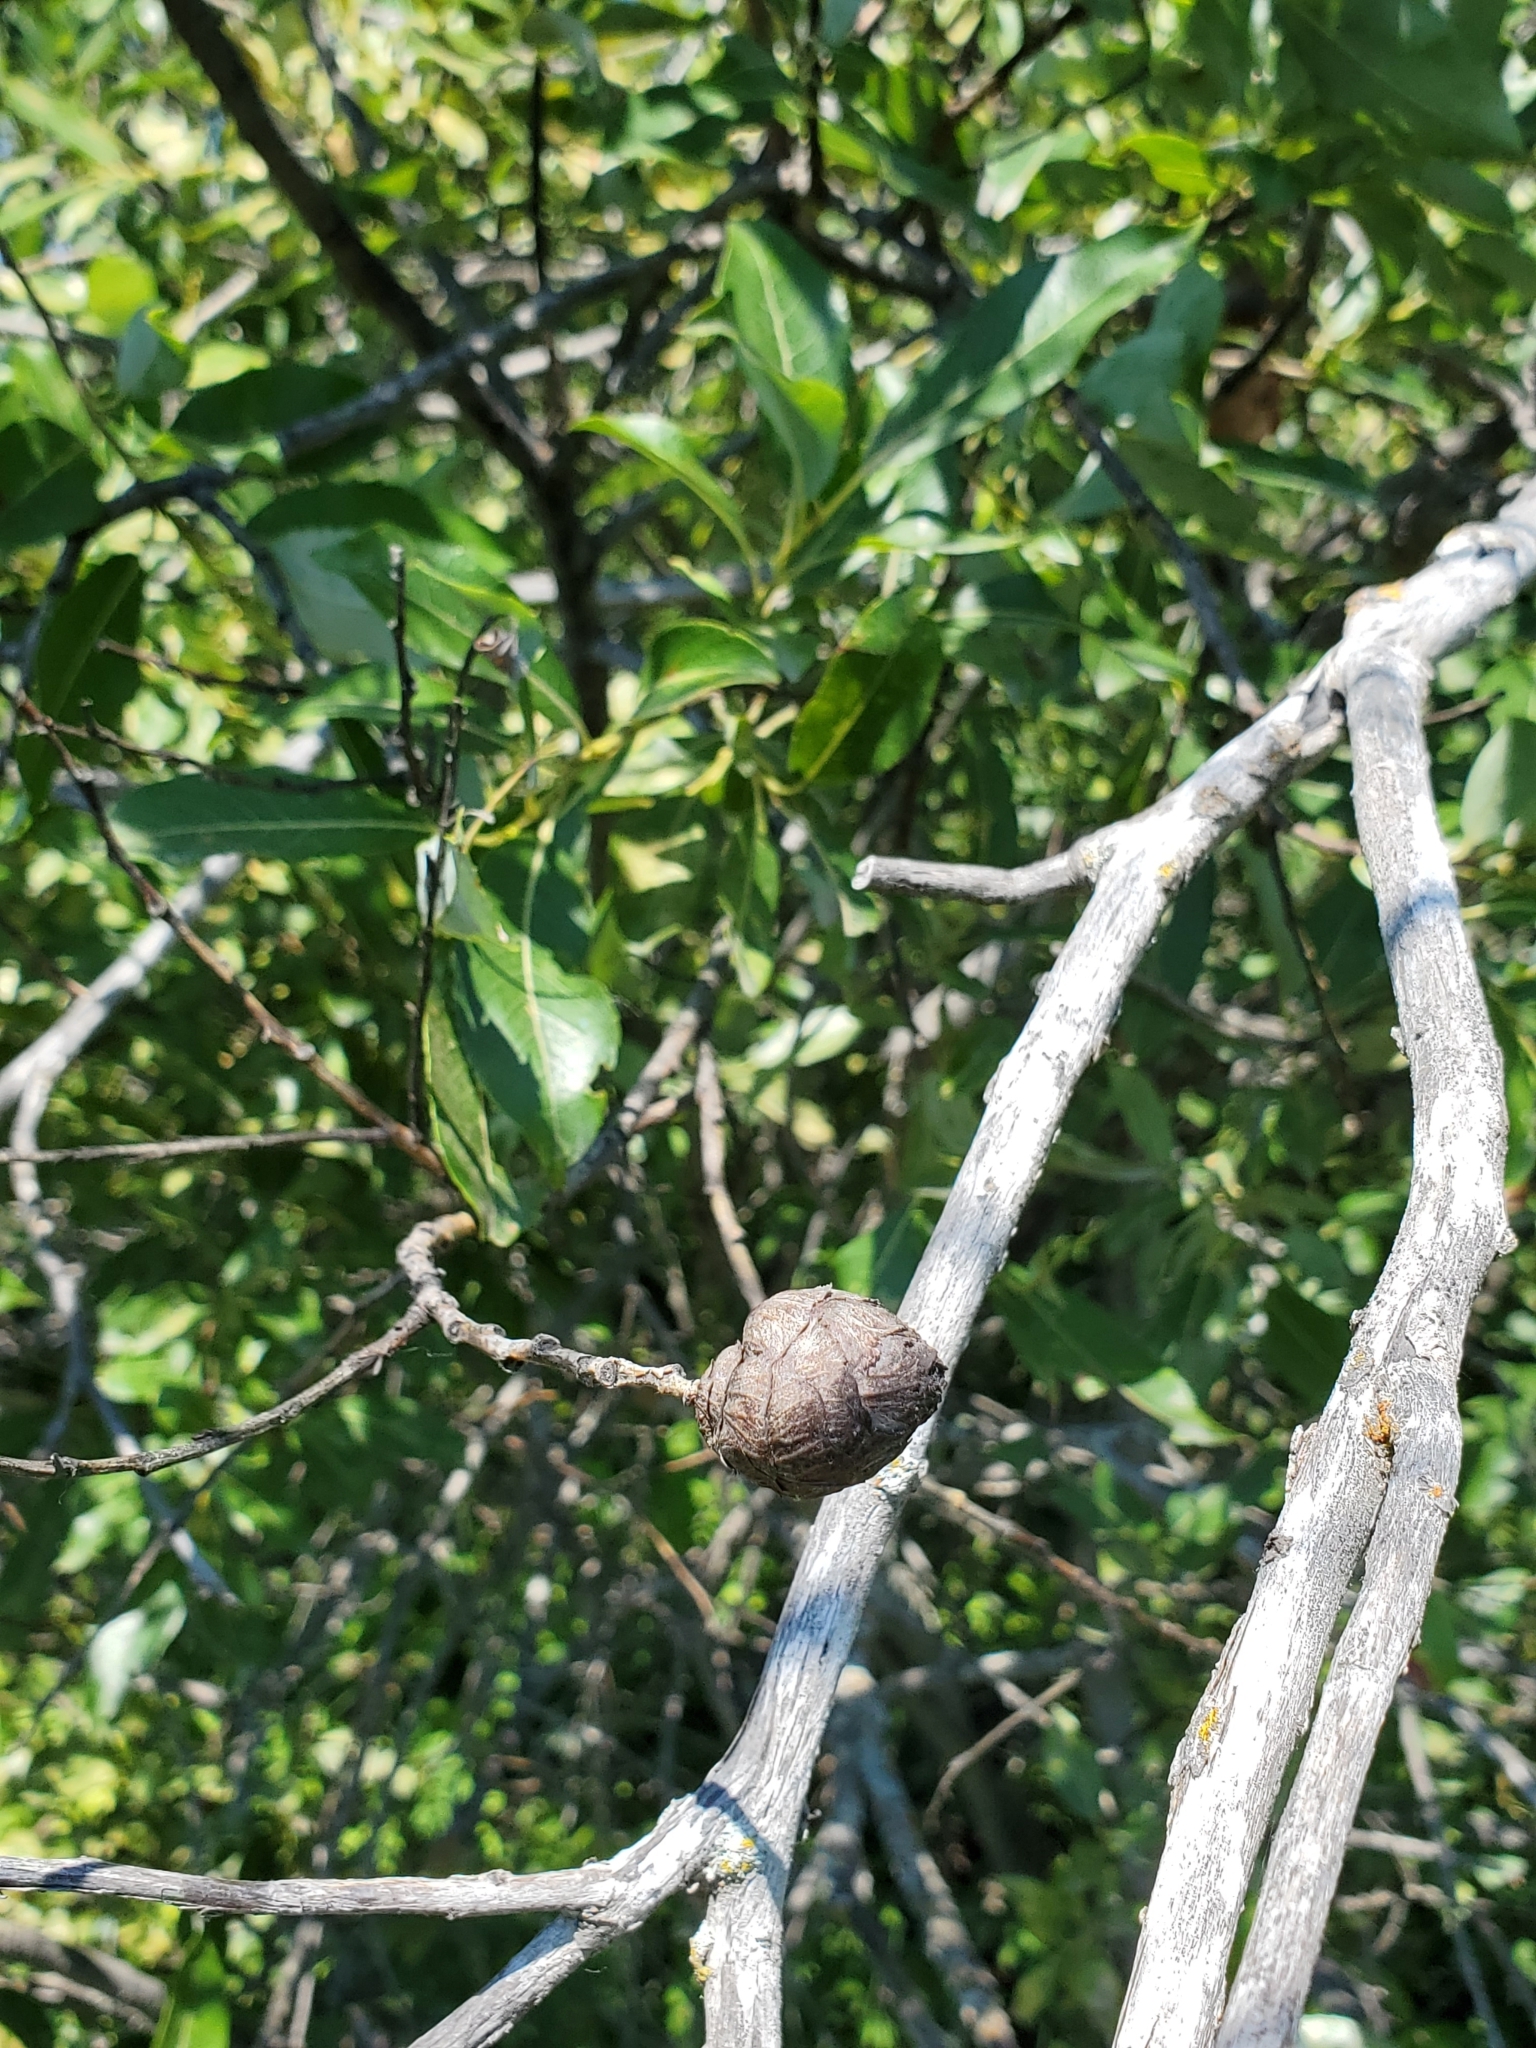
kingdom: Animalia
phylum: Arthropoda
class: Insecta
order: Diptera
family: Cecidomyiidae
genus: Rabdophaga
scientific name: Rabdophaga strobiloides
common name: Willow pinecone gall midge
